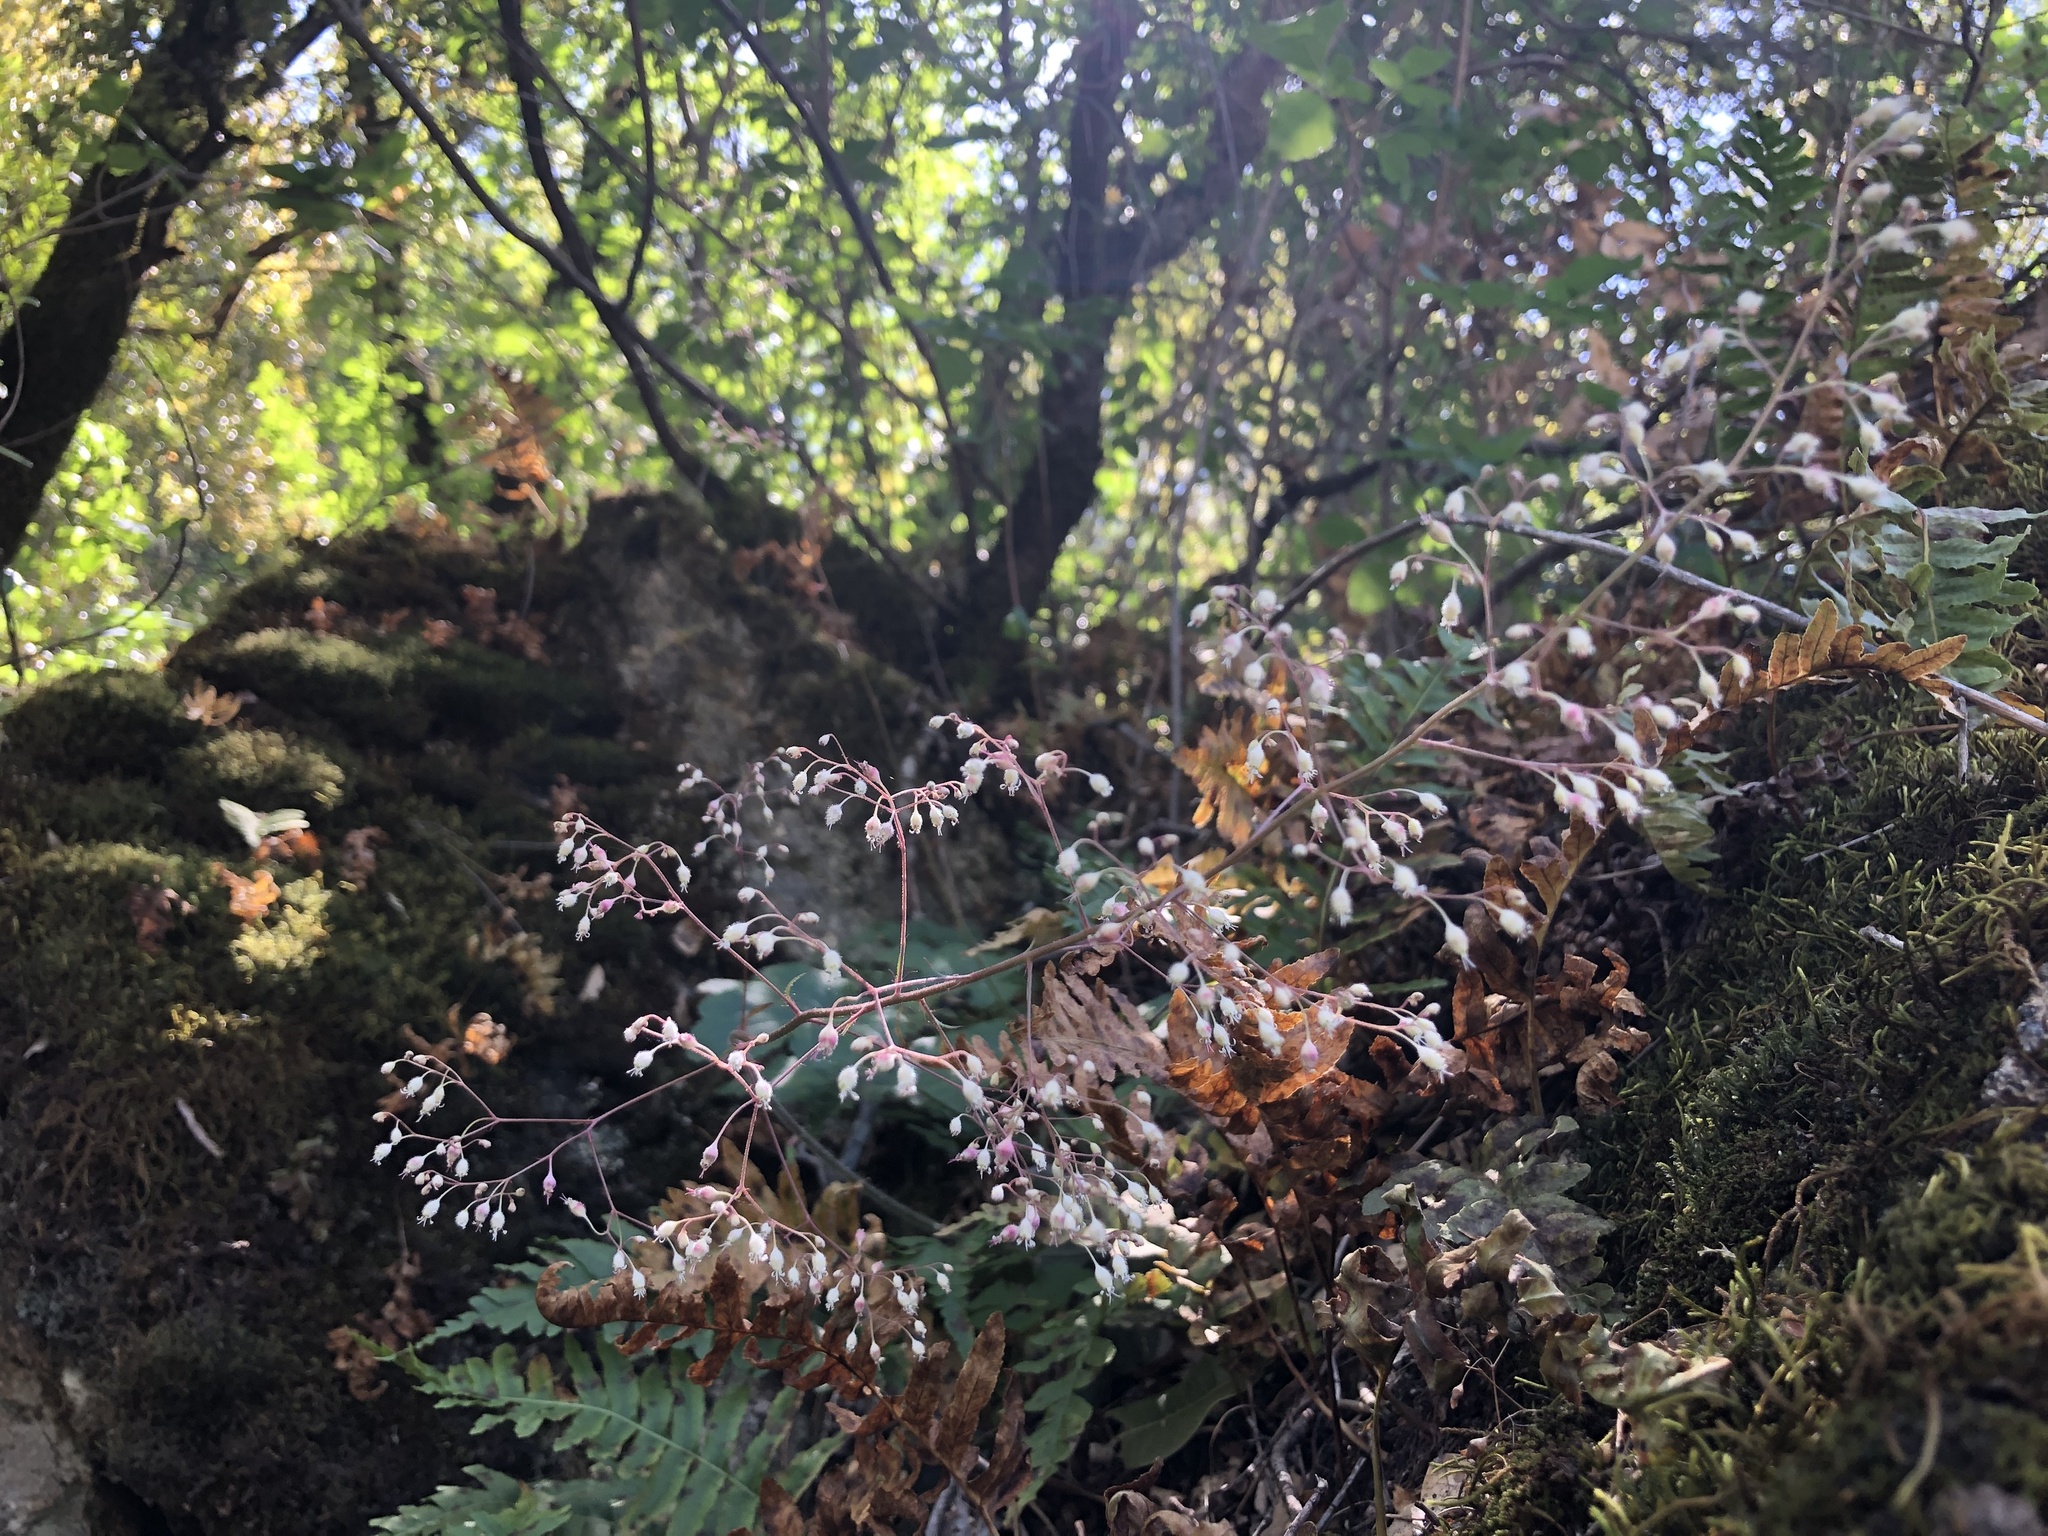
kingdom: Plantae
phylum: Tracheophyta
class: Magnoliopsida
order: Saxifragales
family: Saxifragaceae
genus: Heuchera
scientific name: Heuchera micrantha
